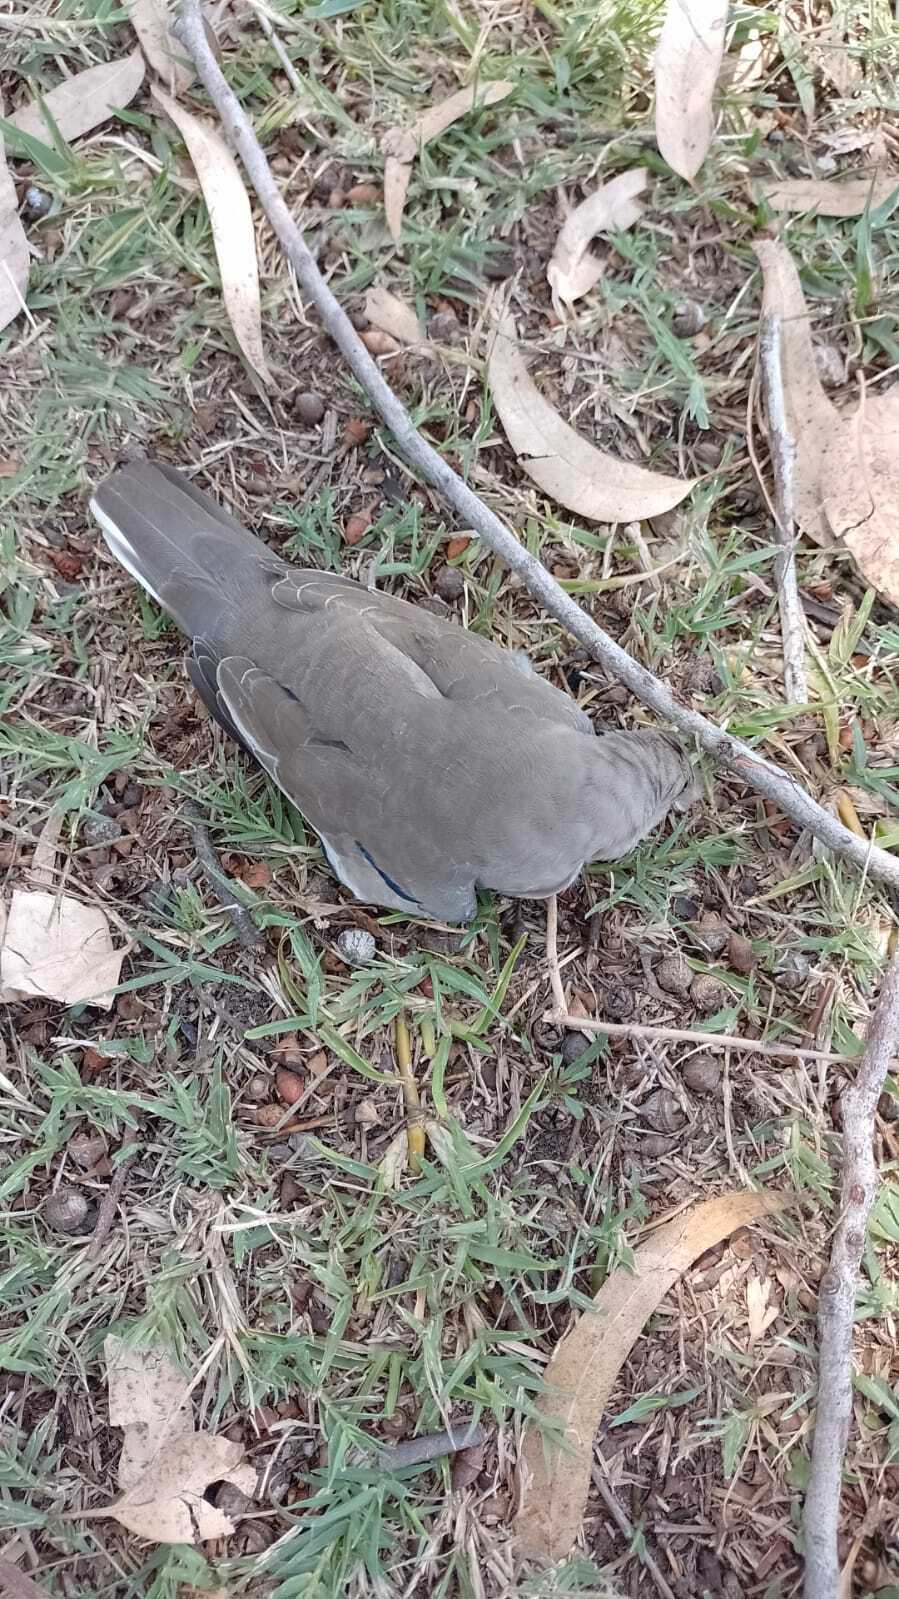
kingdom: Animalia
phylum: Chordata
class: Aves
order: Columbiformes
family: Columbidae
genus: Columbina
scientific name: Columbina picui
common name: Picui ground dove
